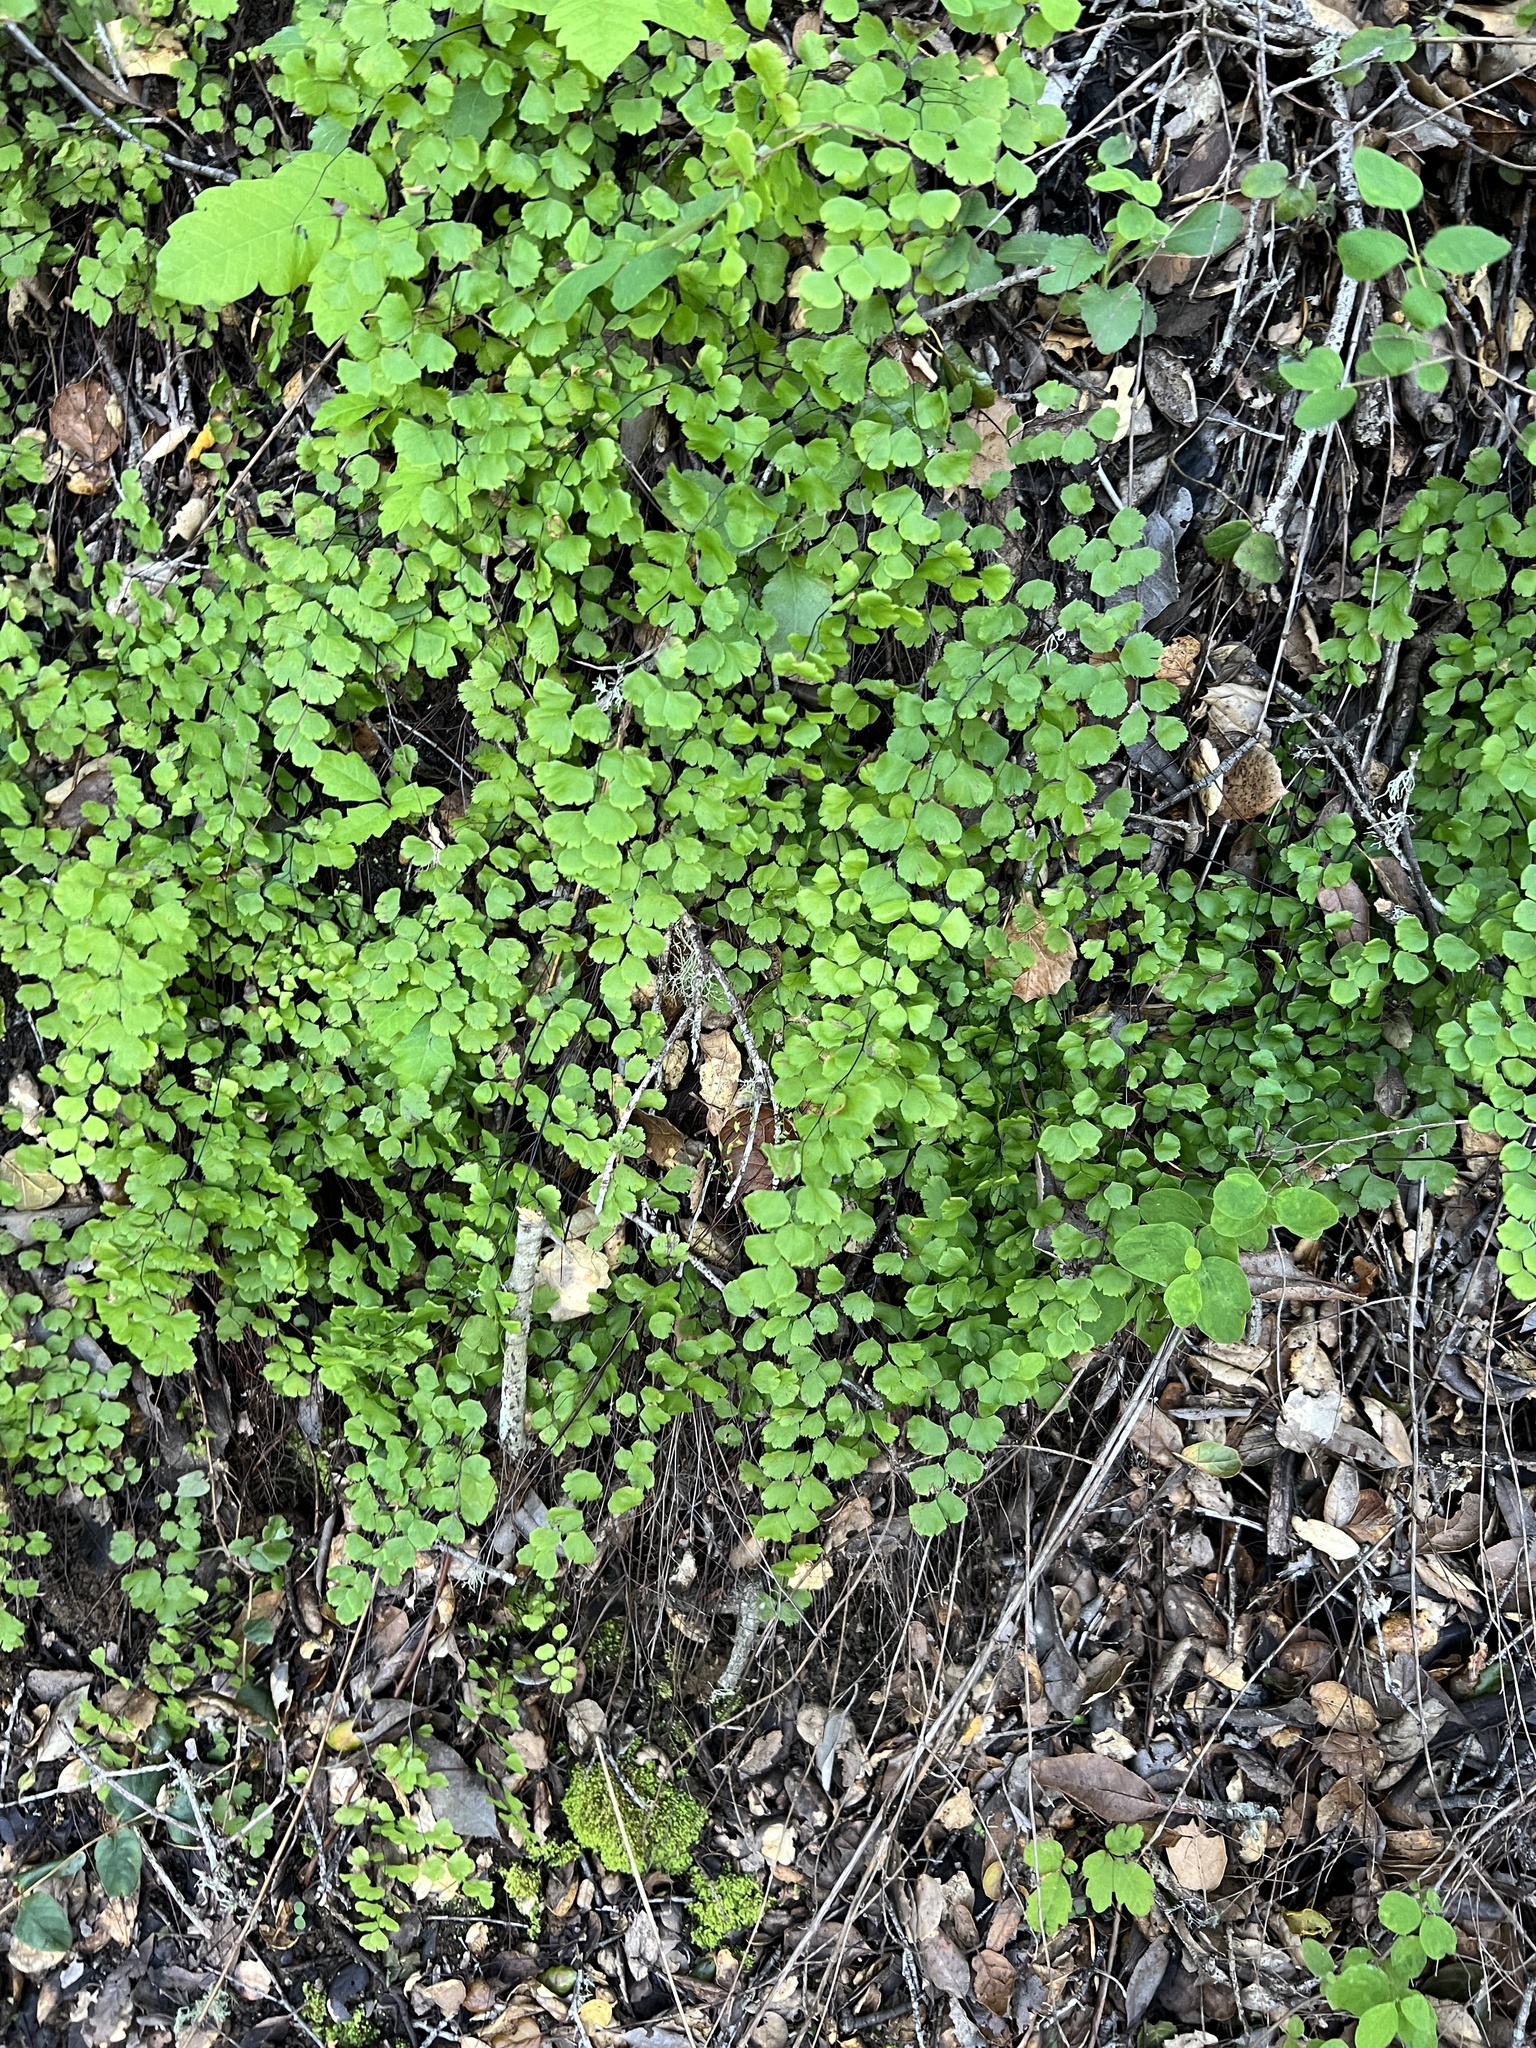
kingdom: Plantae
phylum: Tracheophyta
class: Polypodiopsida
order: Polypodiales
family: Pteridaceae
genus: Adiantum
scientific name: Adiantum jordanii
